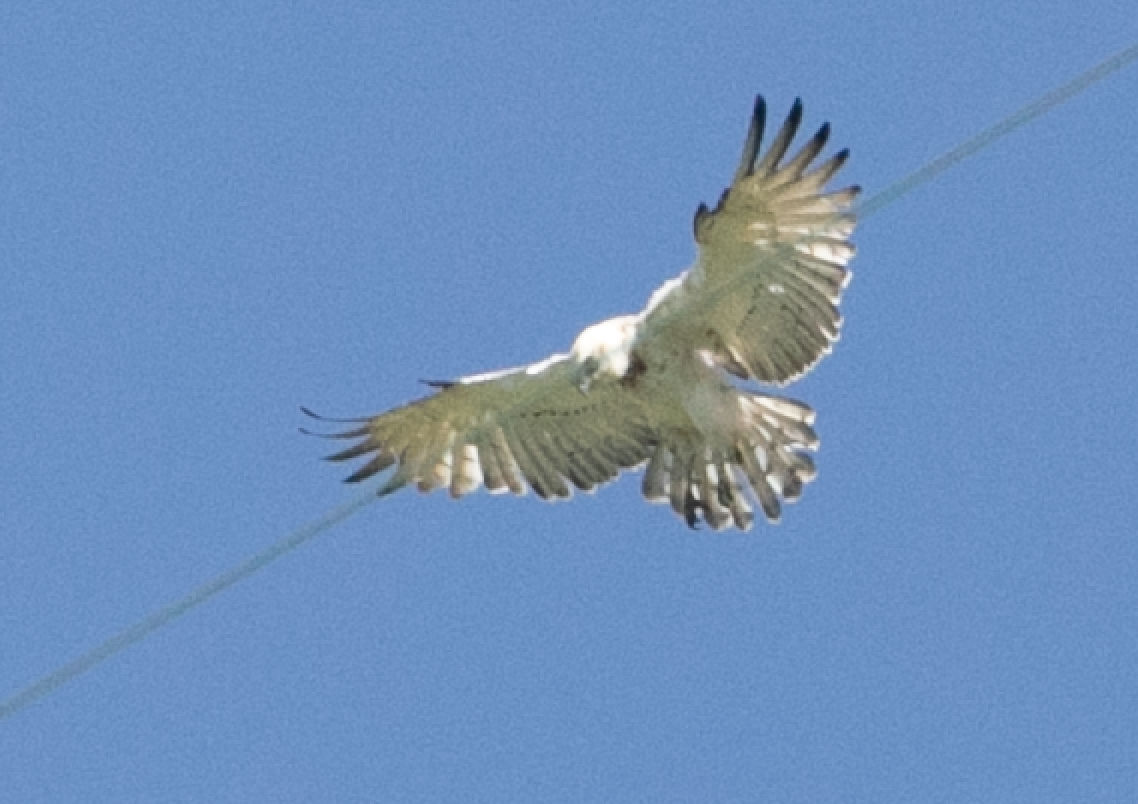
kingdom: Animalia
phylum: Chordata
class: Aves
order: Accipitriformes
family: Accipitridae
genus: Circaetus
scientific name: Circaetus gallicus
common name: Short-toed snake eagle
